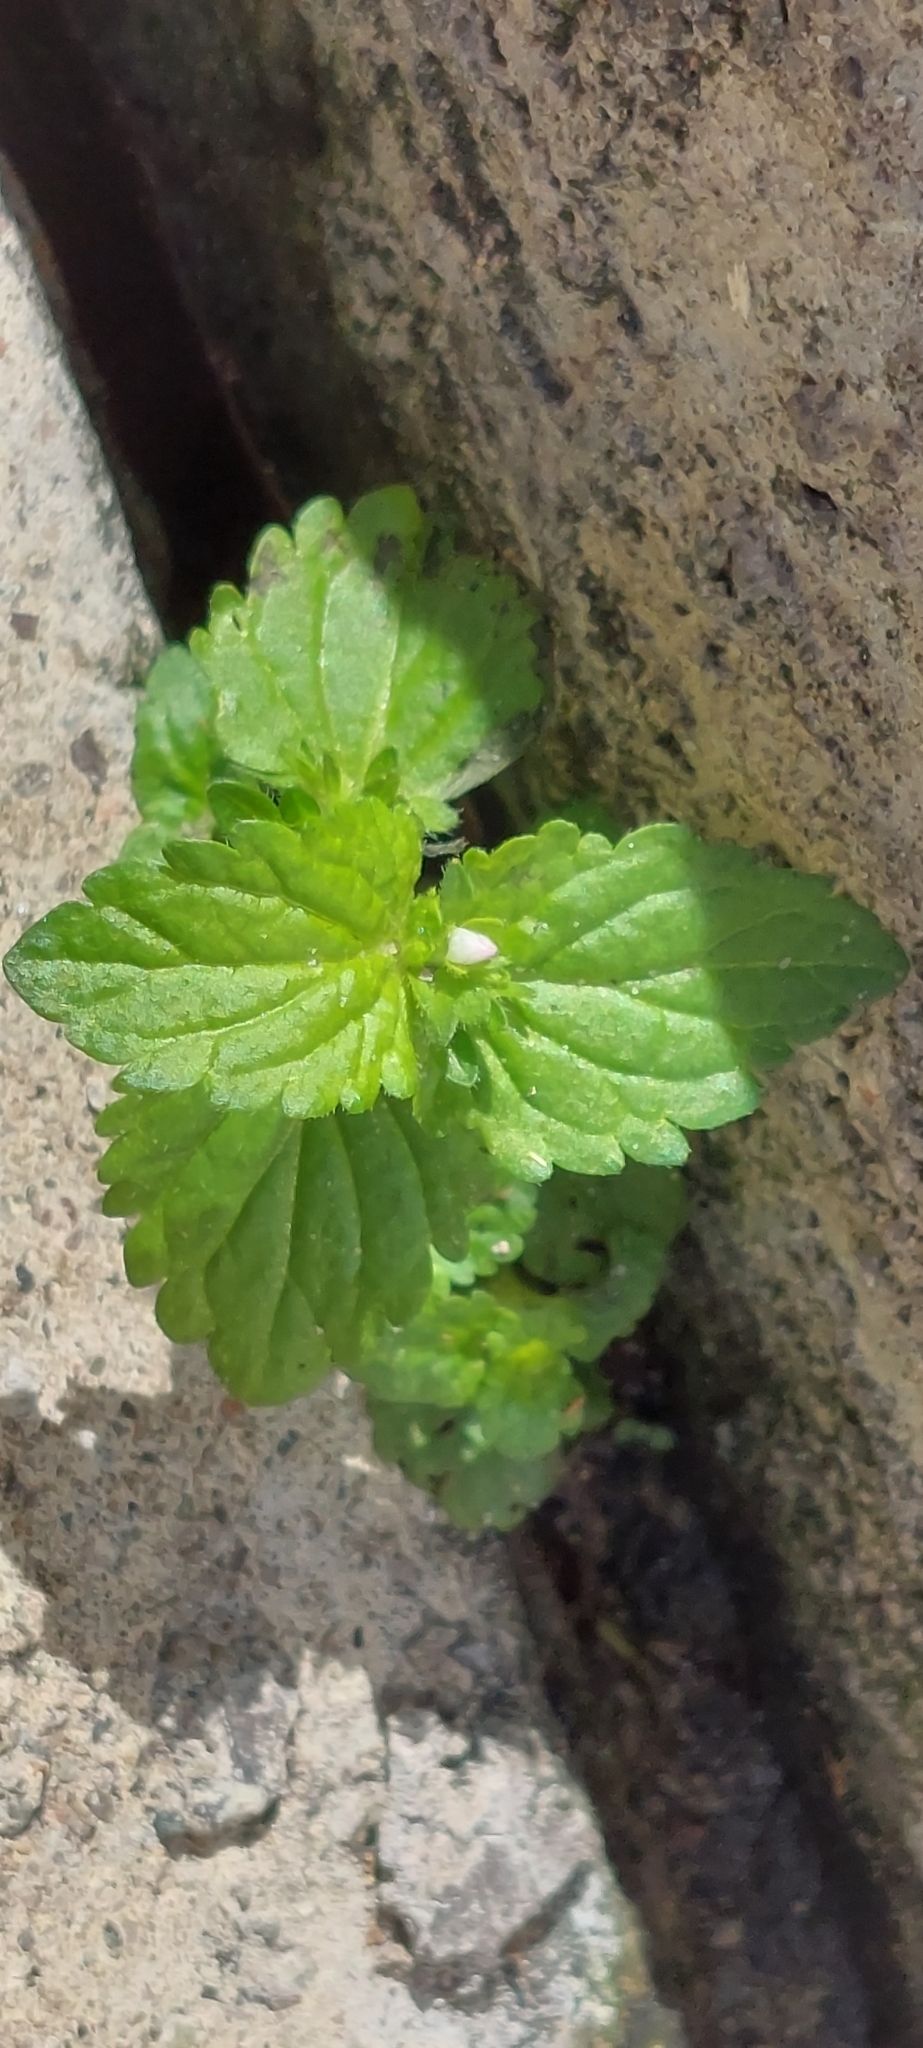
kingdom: Plantae
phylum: Tracheophyta
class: Magnoliopsida
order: Lamiales
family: Plantaginaceae
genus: Veronica
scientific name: Veronica javanica
